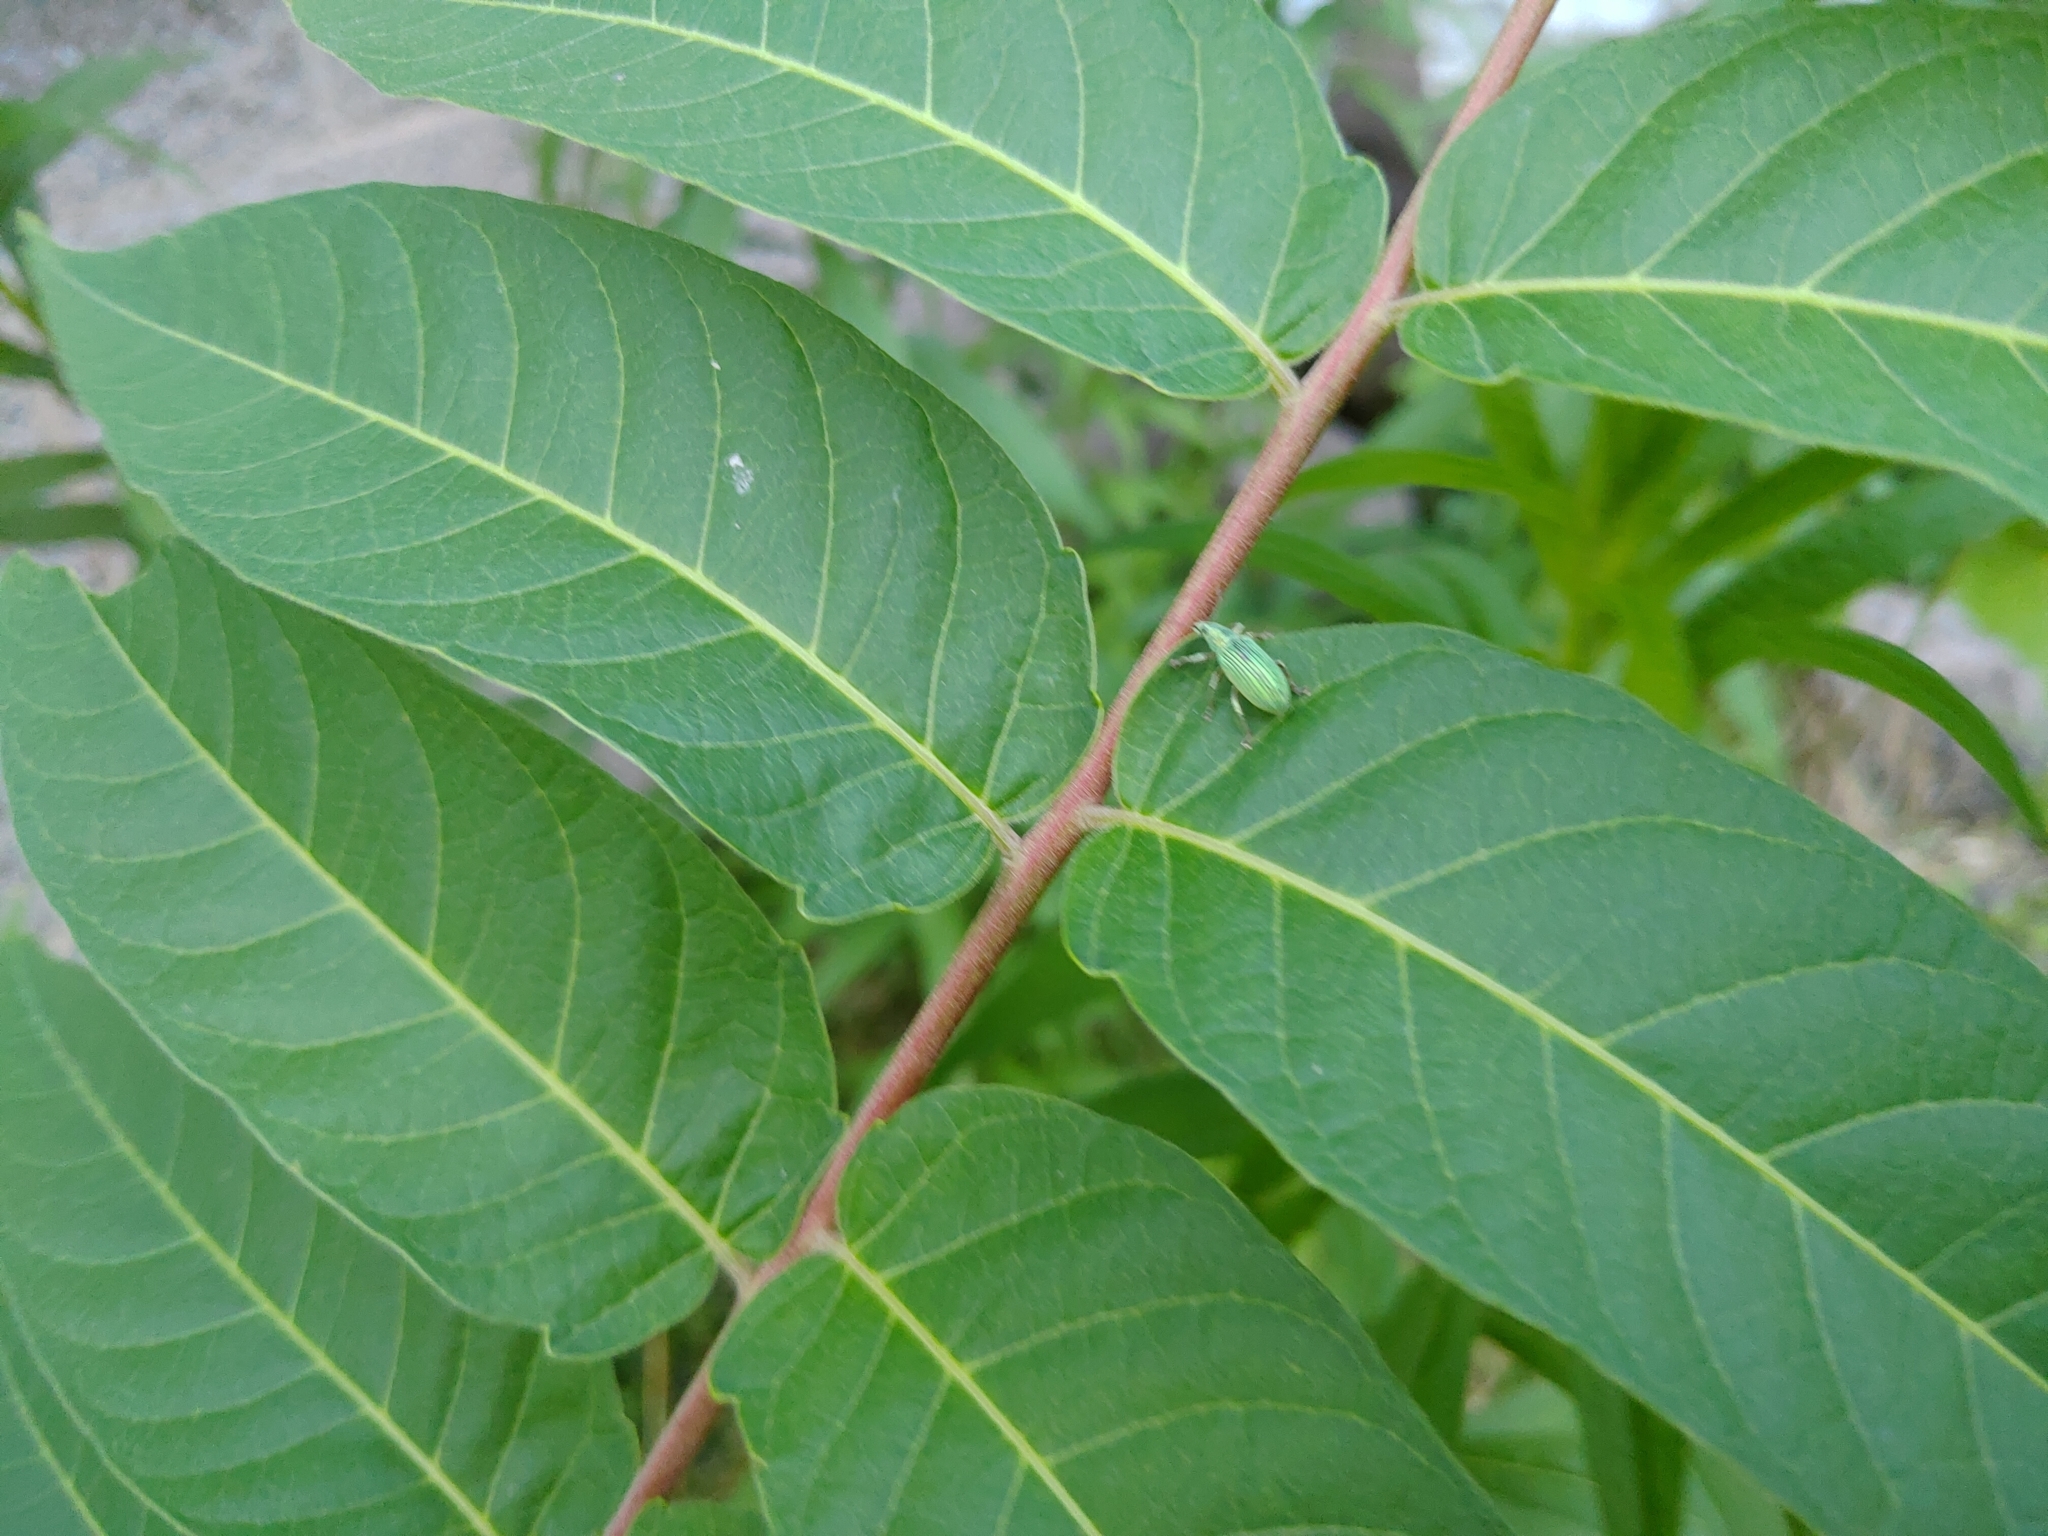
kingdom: Animalia
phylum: Arthropoda
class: Insecta
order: Coleoptera
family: Curculionidae
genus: Polydrusus
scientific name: Polydrusus formosus
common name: Weevil
